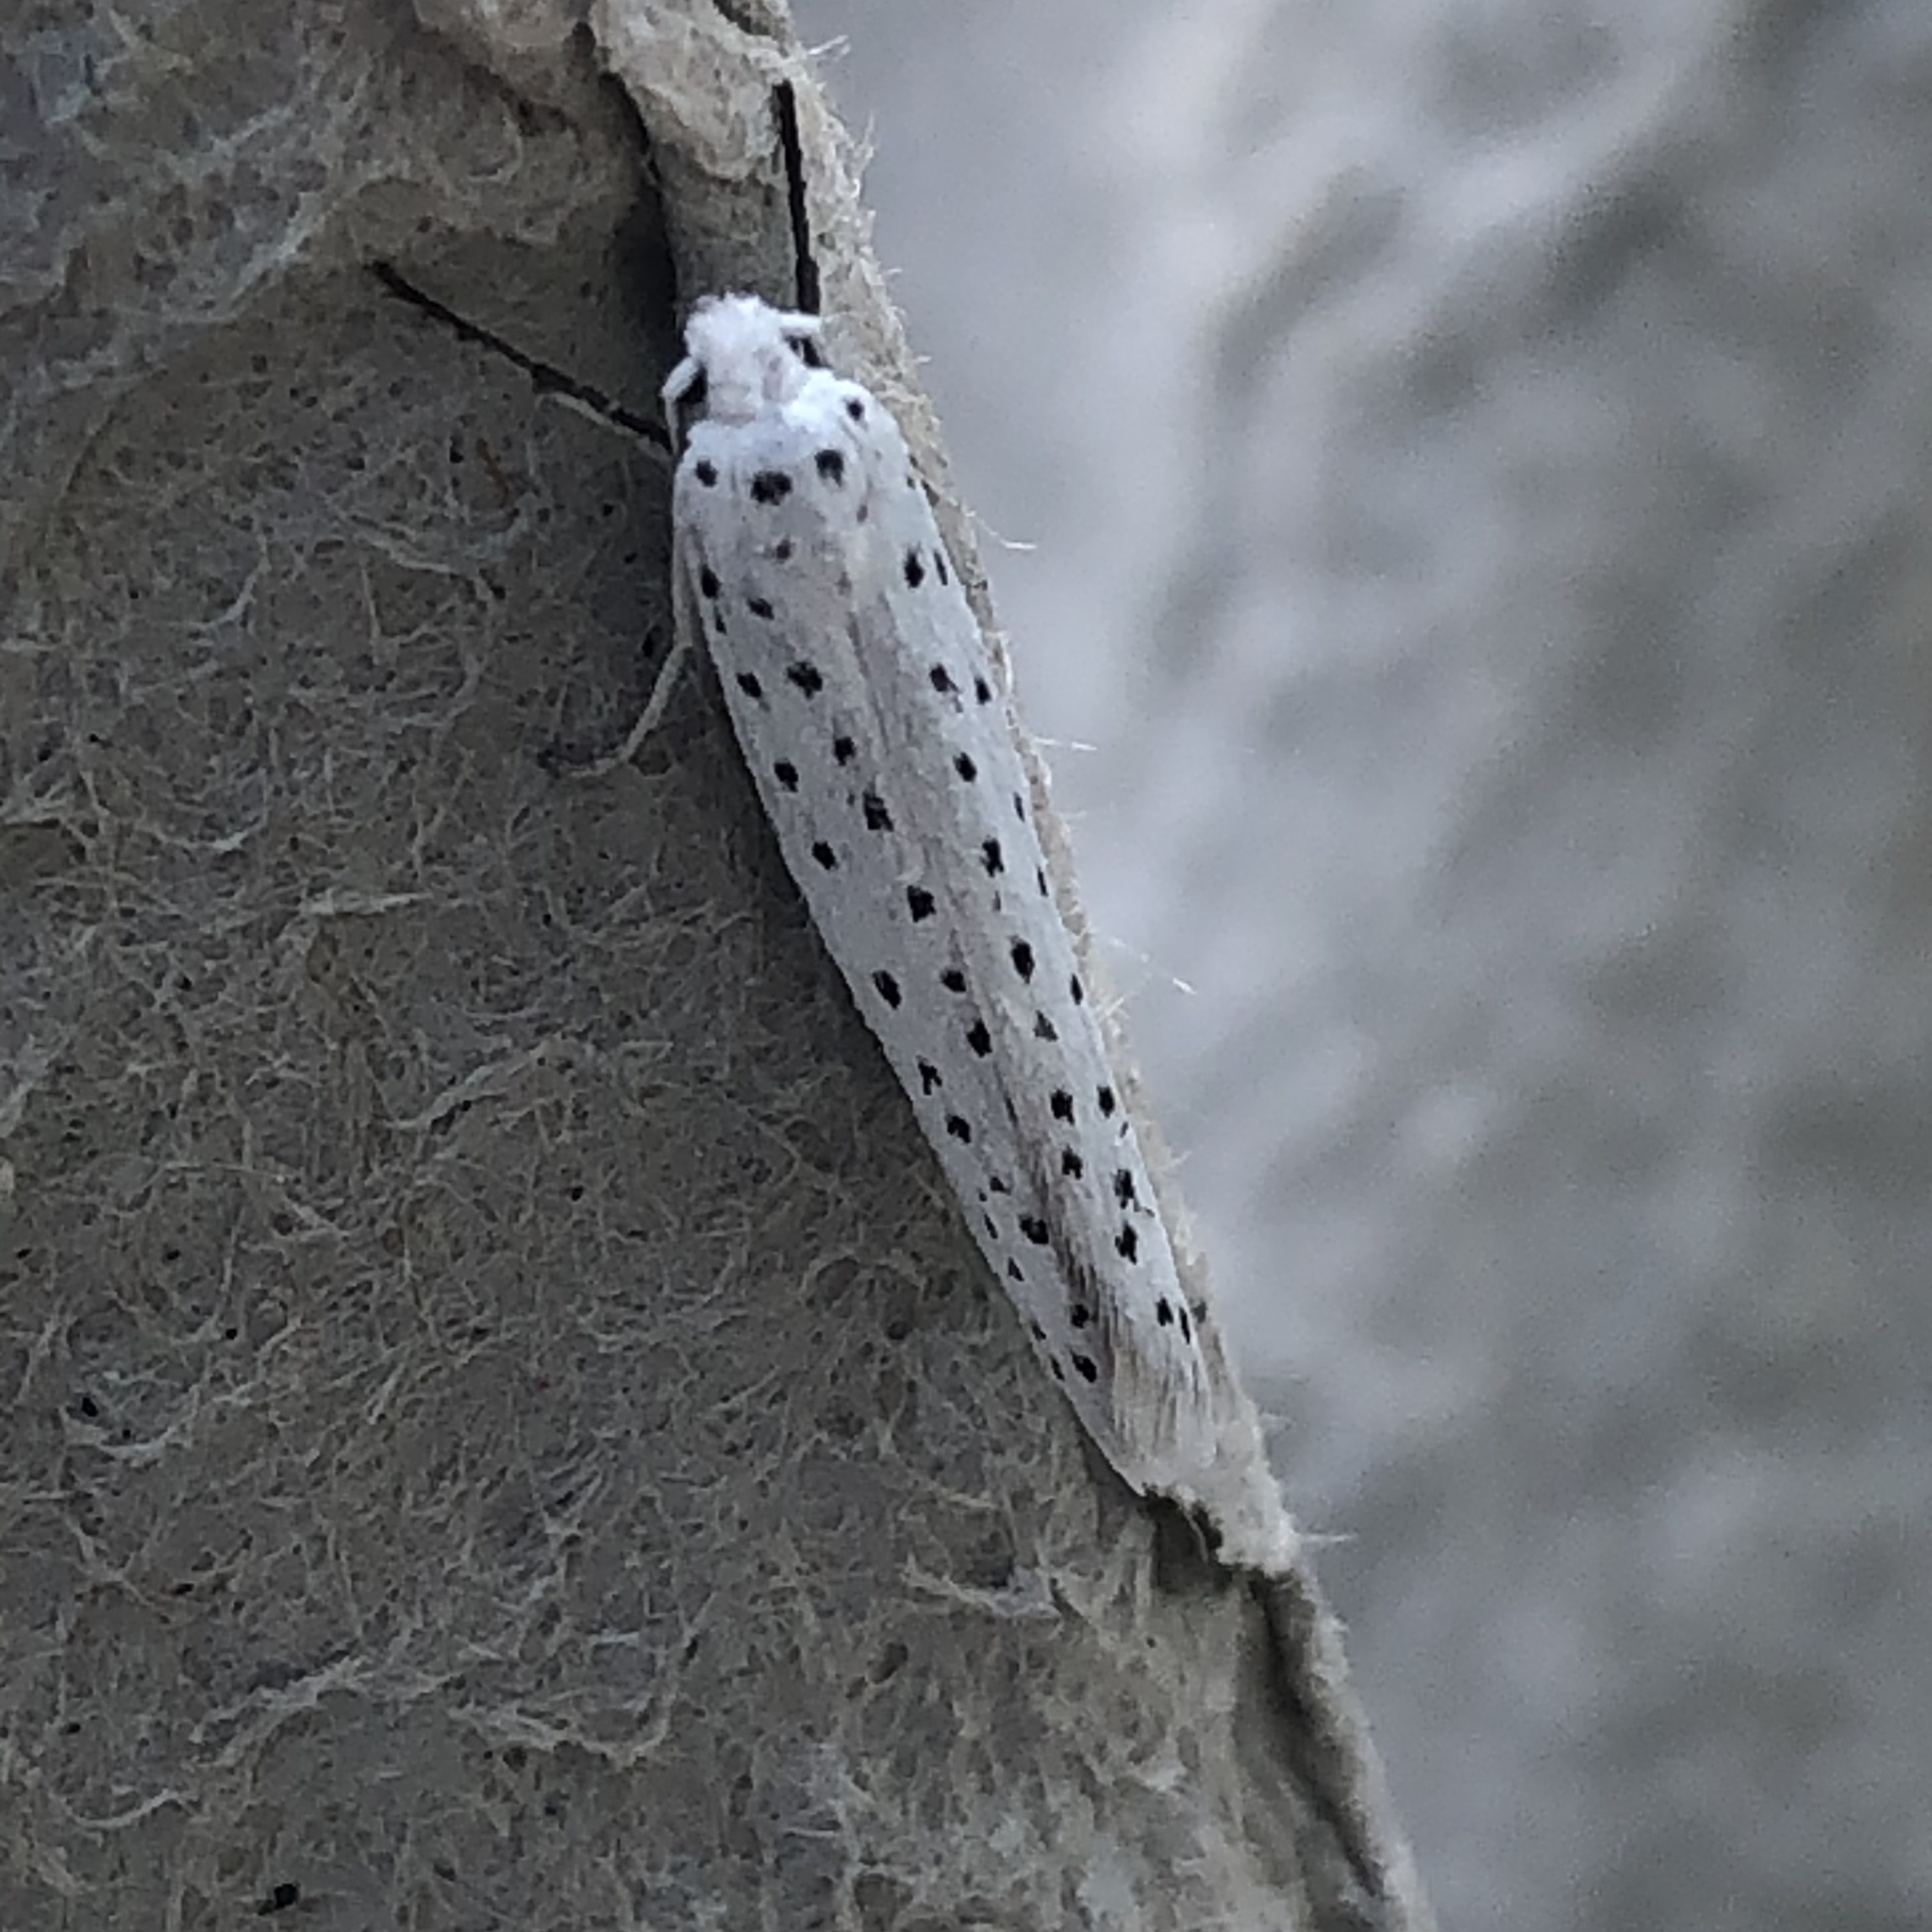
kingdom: Animalia
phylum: Arthropoda
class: Insecta
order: Lepidoptera
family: Yponomeutidae
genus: Yponomeuta
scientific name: Yponomeuta evonymella
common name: Bird-cherry ermine
